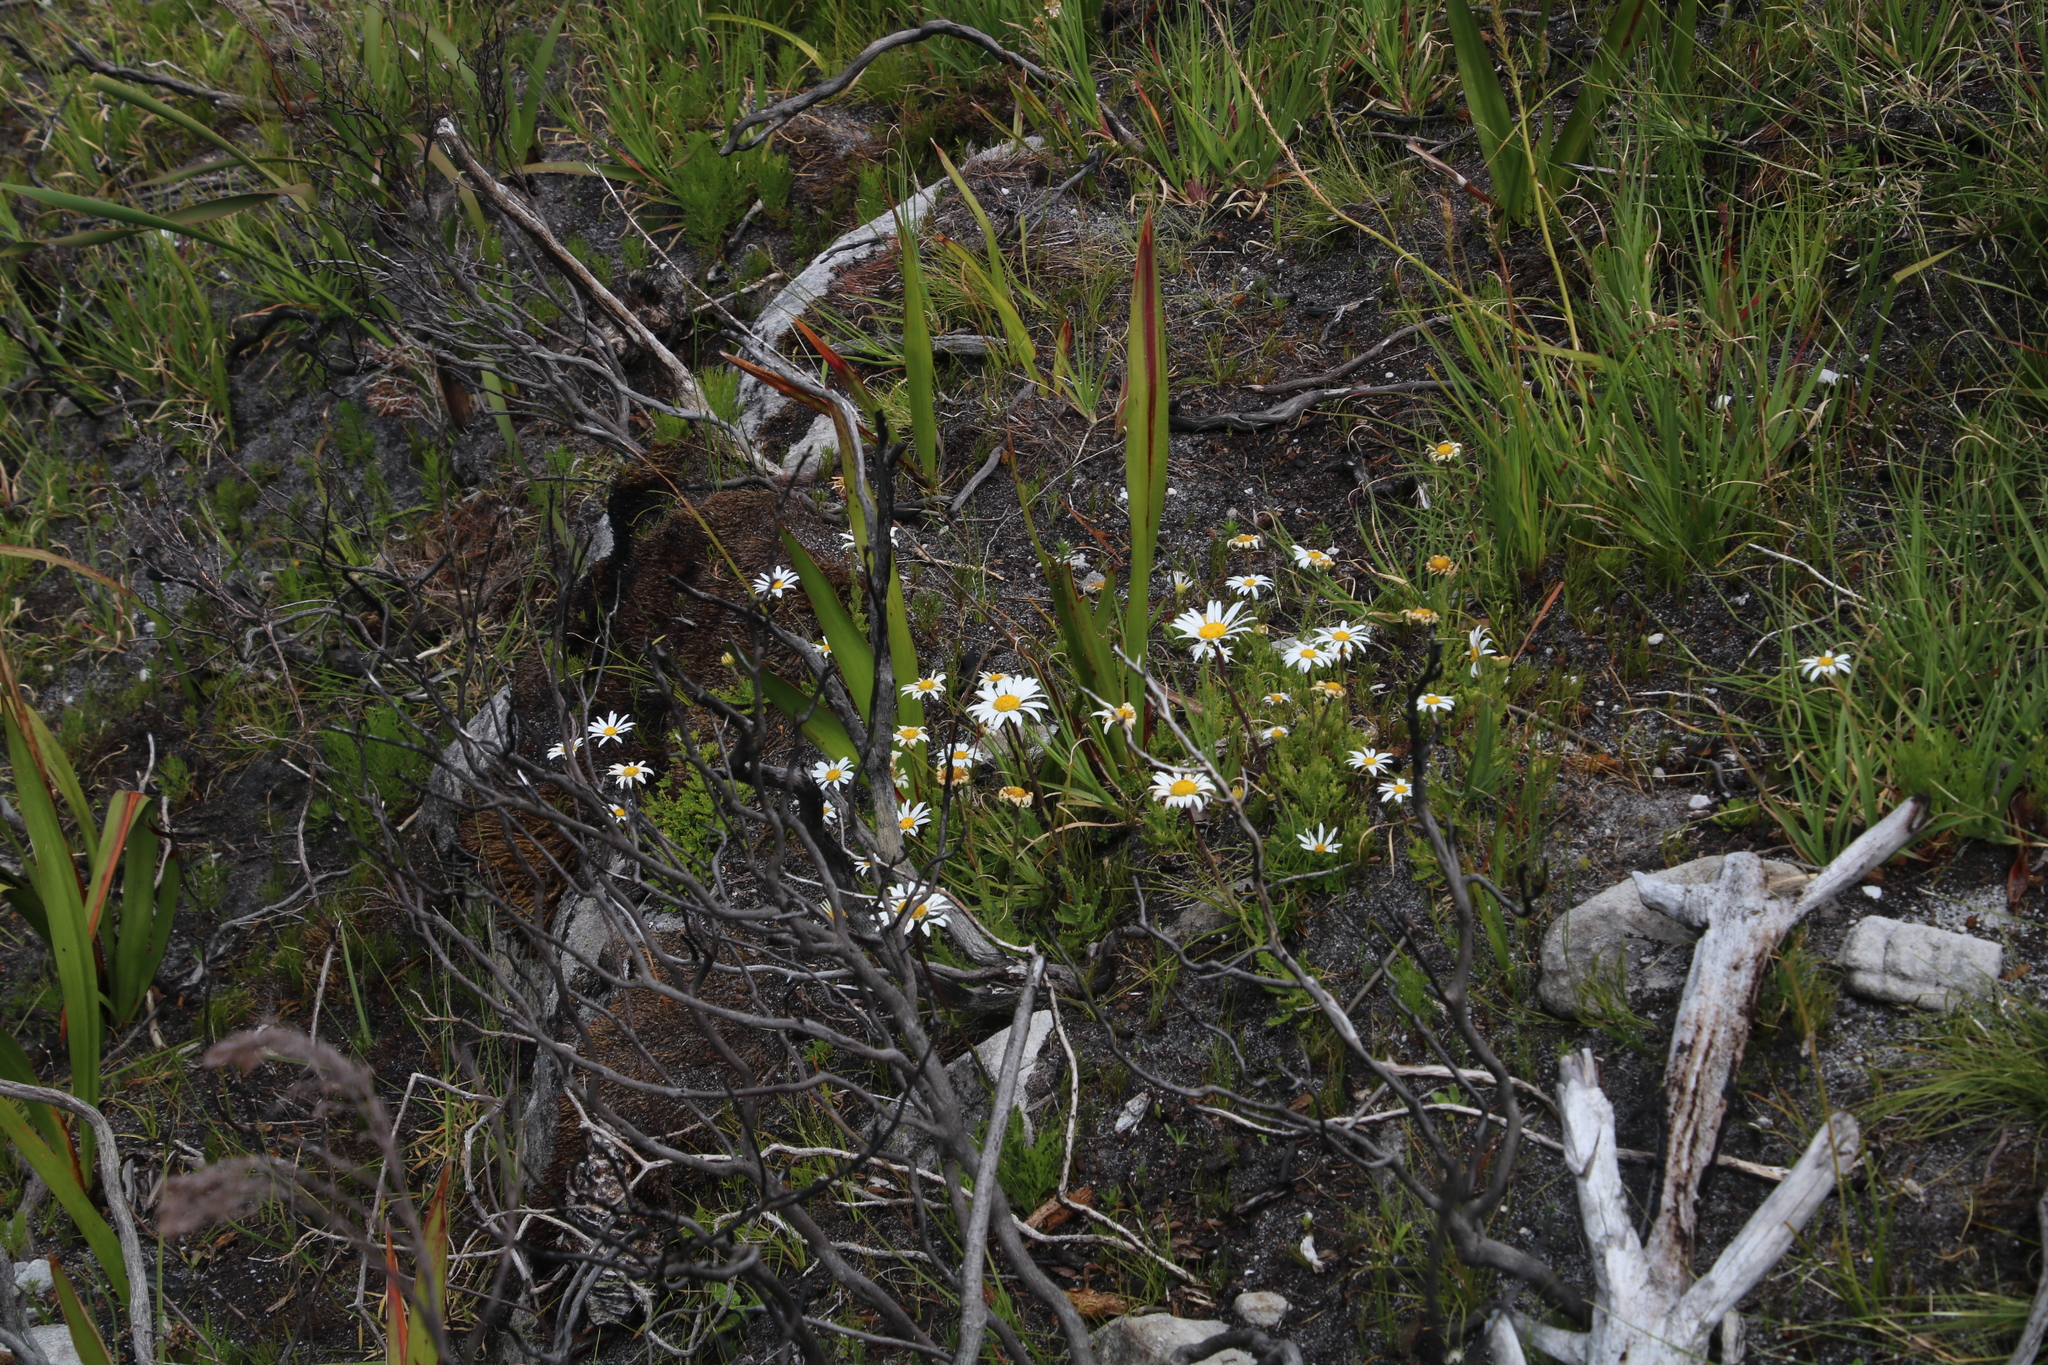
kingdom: Plantae
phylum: Tracheophyta
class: Magnoliopsida
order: Asterales
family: Asteraceae
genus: Osmitopsis
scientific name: Osmitopsis dentata
